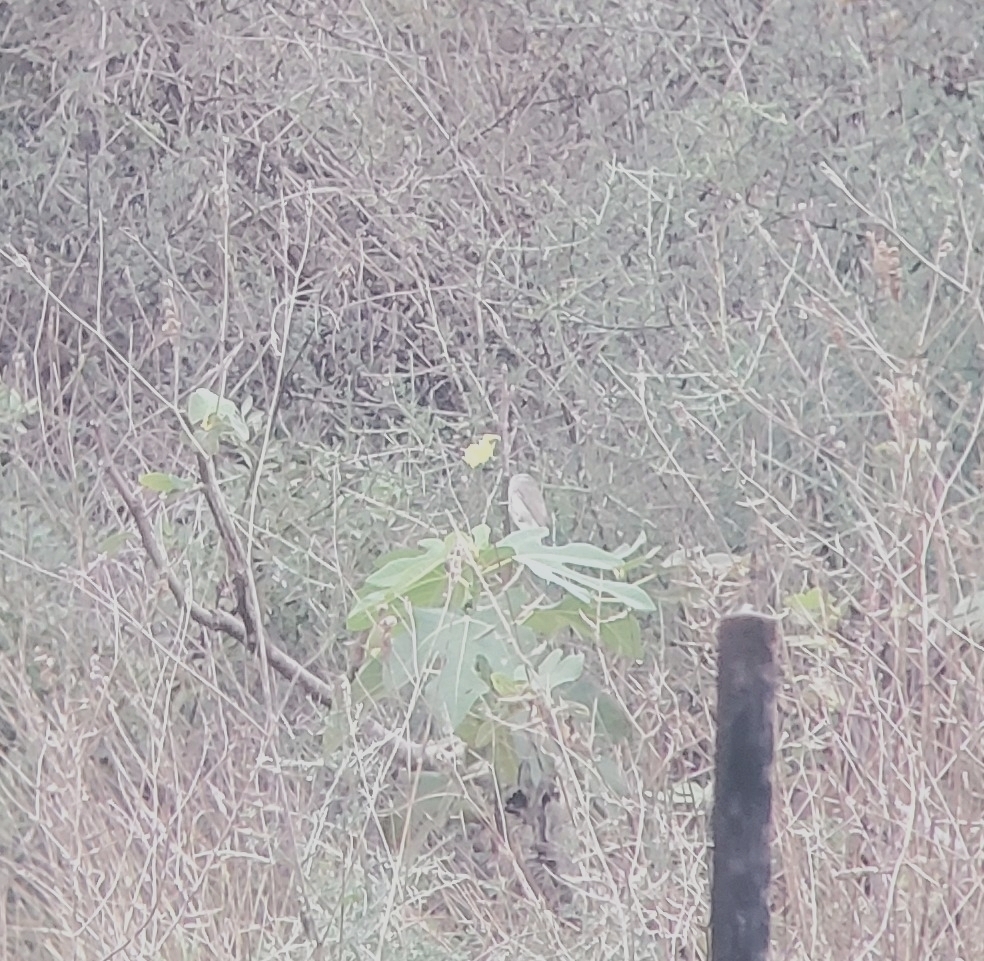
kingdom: Animalia
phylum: Chordata
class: Aves
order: Passeriformes
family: Sylviidae
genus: Sylvia
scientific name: Sylvia atricapilla
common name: Eurasian blackcap
